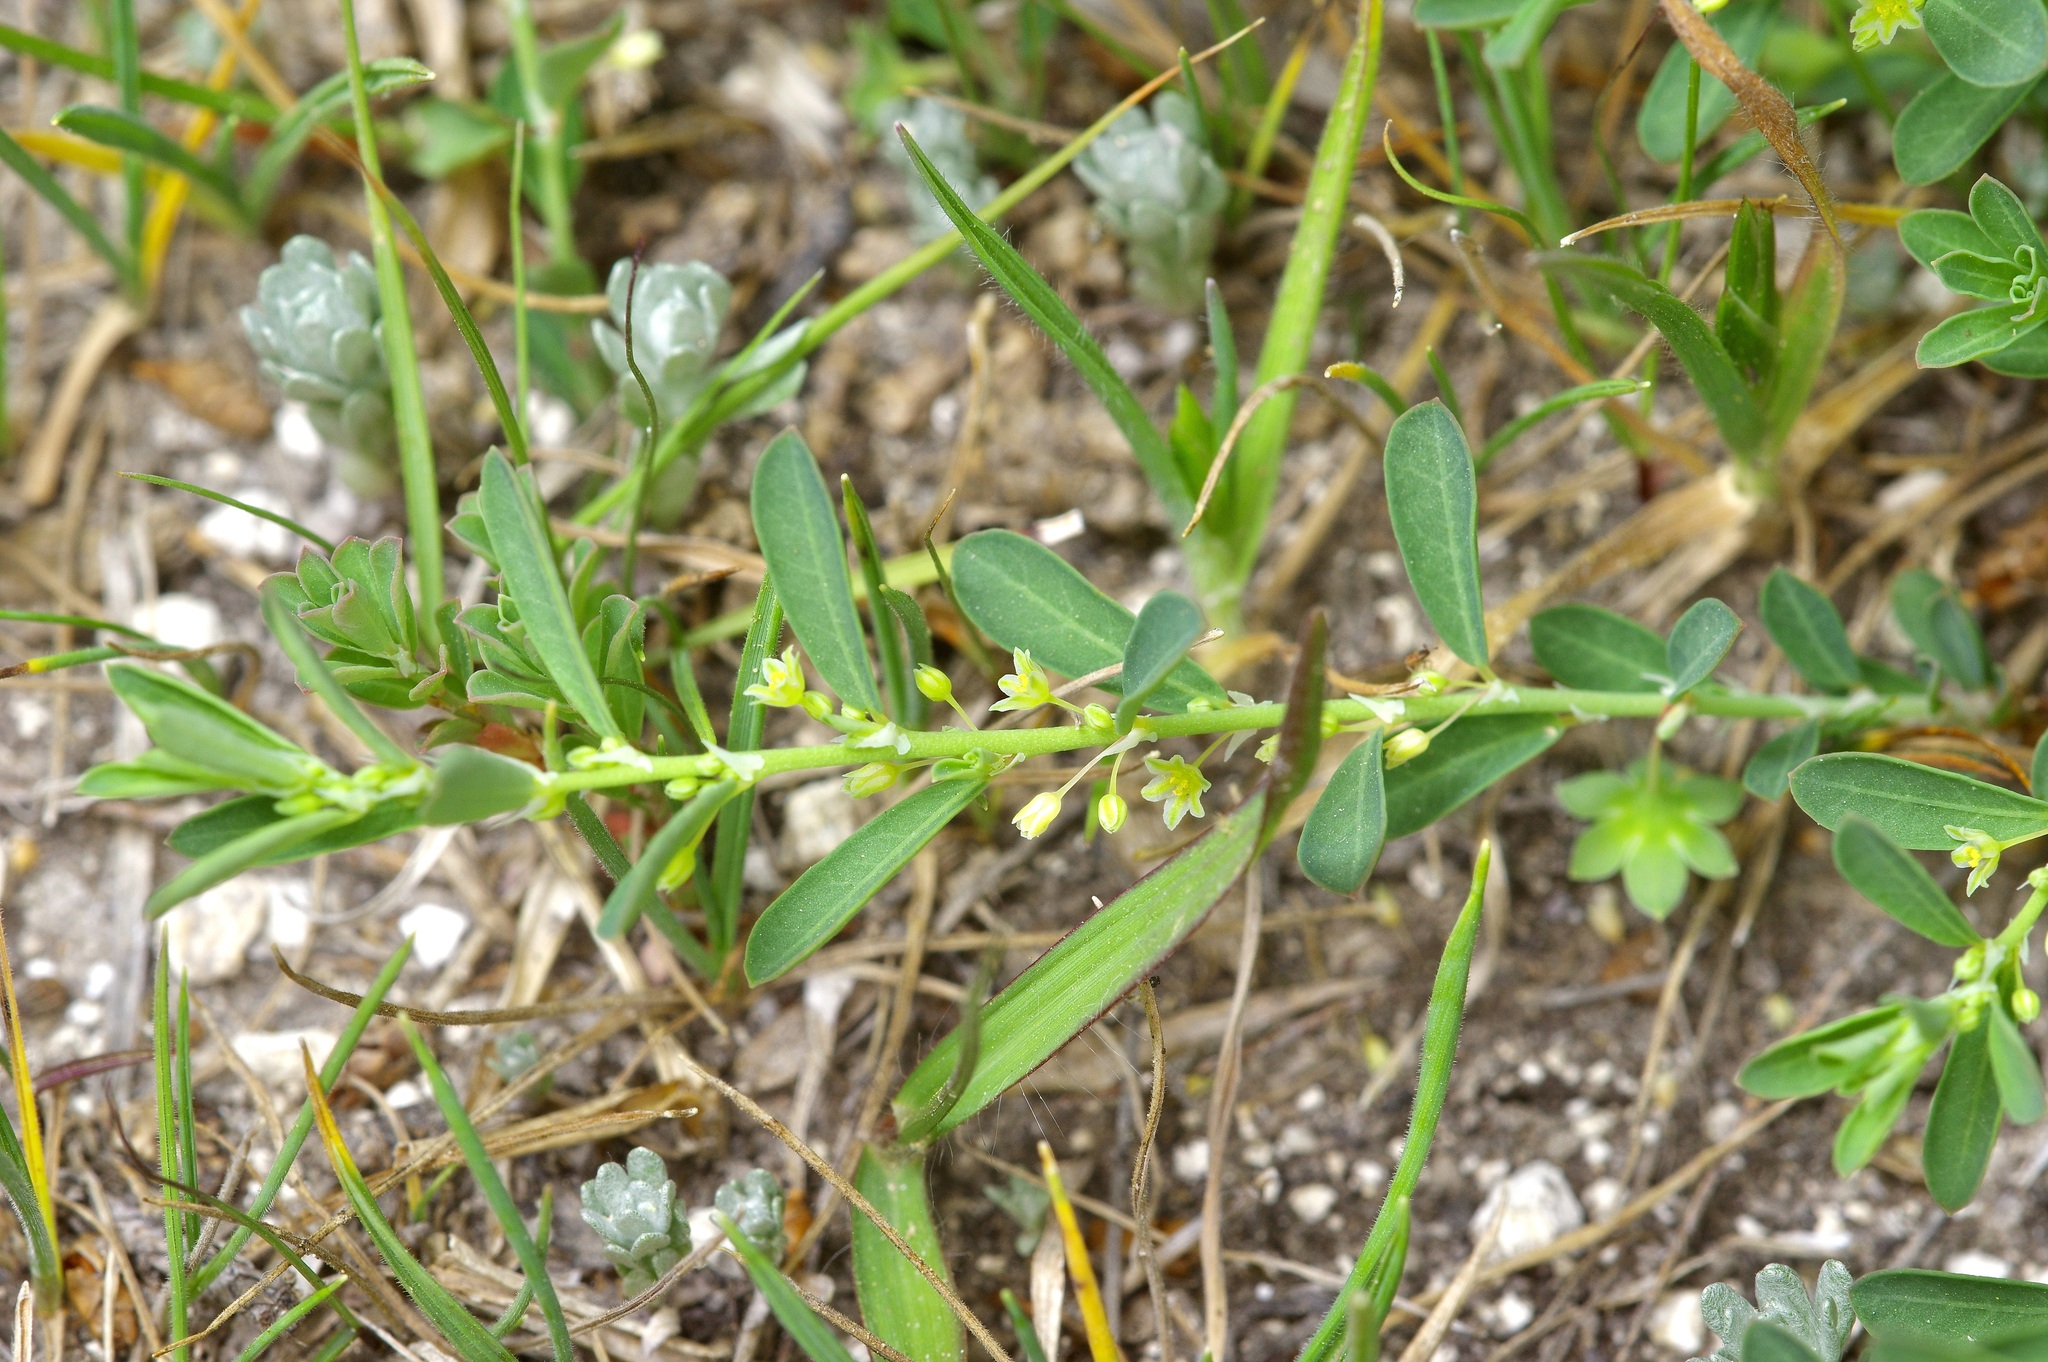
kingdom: Plantae
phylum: Tracheophyta
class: Magnoliopsida
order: Malpighiales
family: Phyllanthaceae
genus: Phyllanthus
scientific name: Phyllanthus polygonoides
